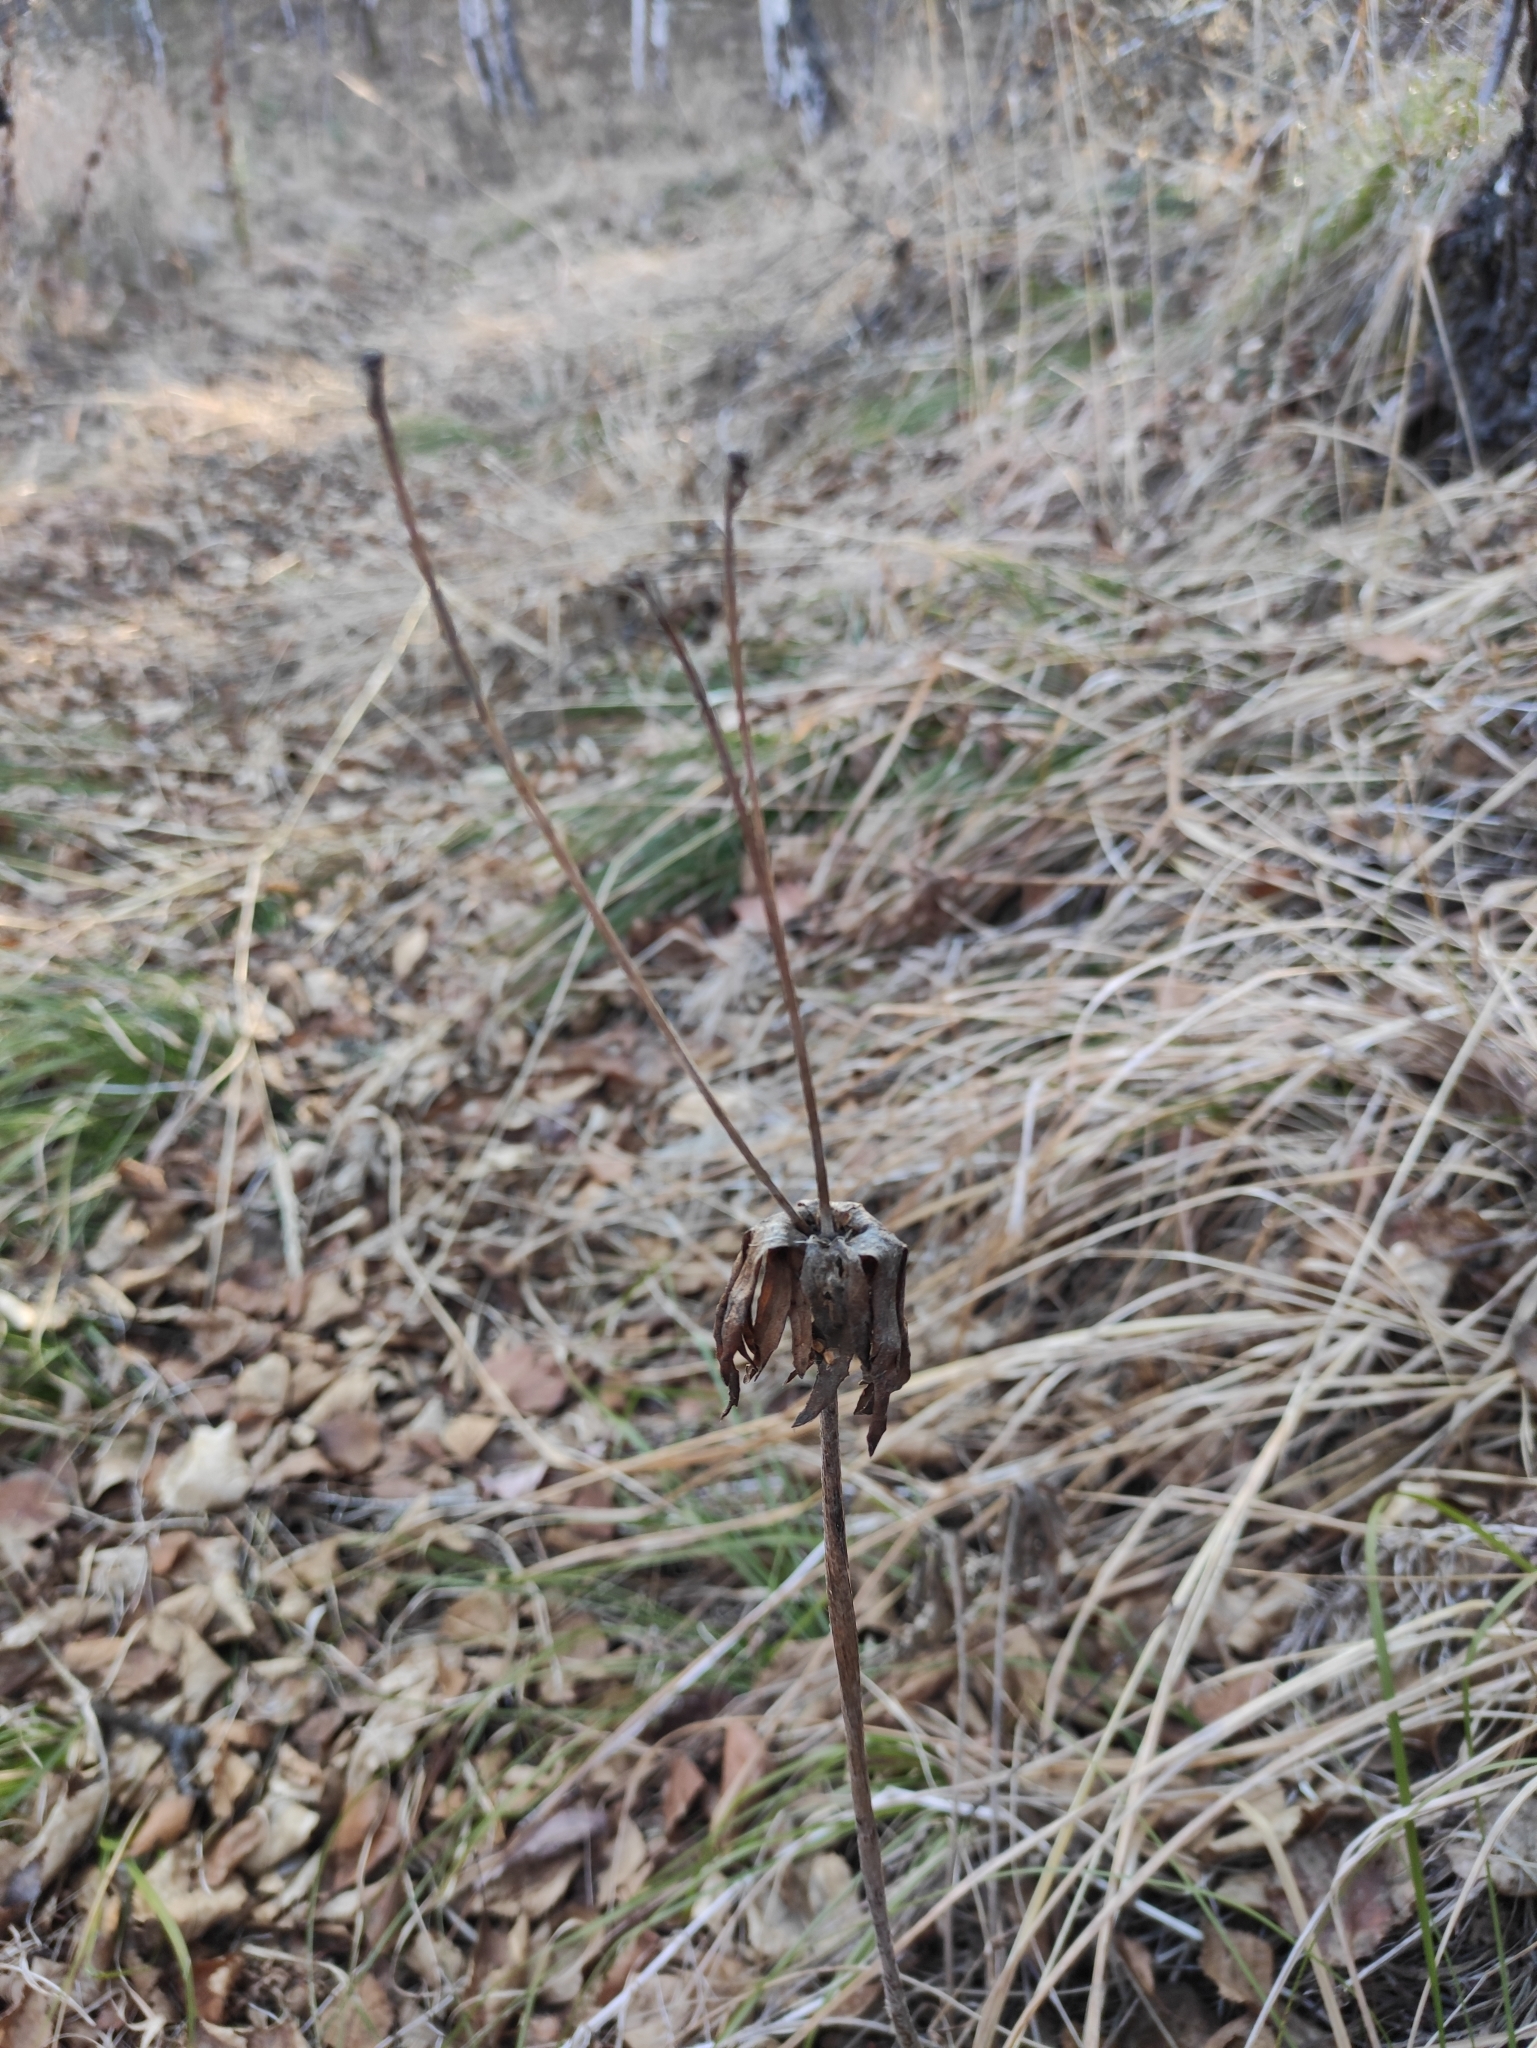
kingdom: Plantae
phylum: Tracheophyta
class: Magnoliopsida
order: Ranunculales
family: Ranunculaceae
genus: Anemonastrum
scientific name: Anemonastrum narcissiflorum
